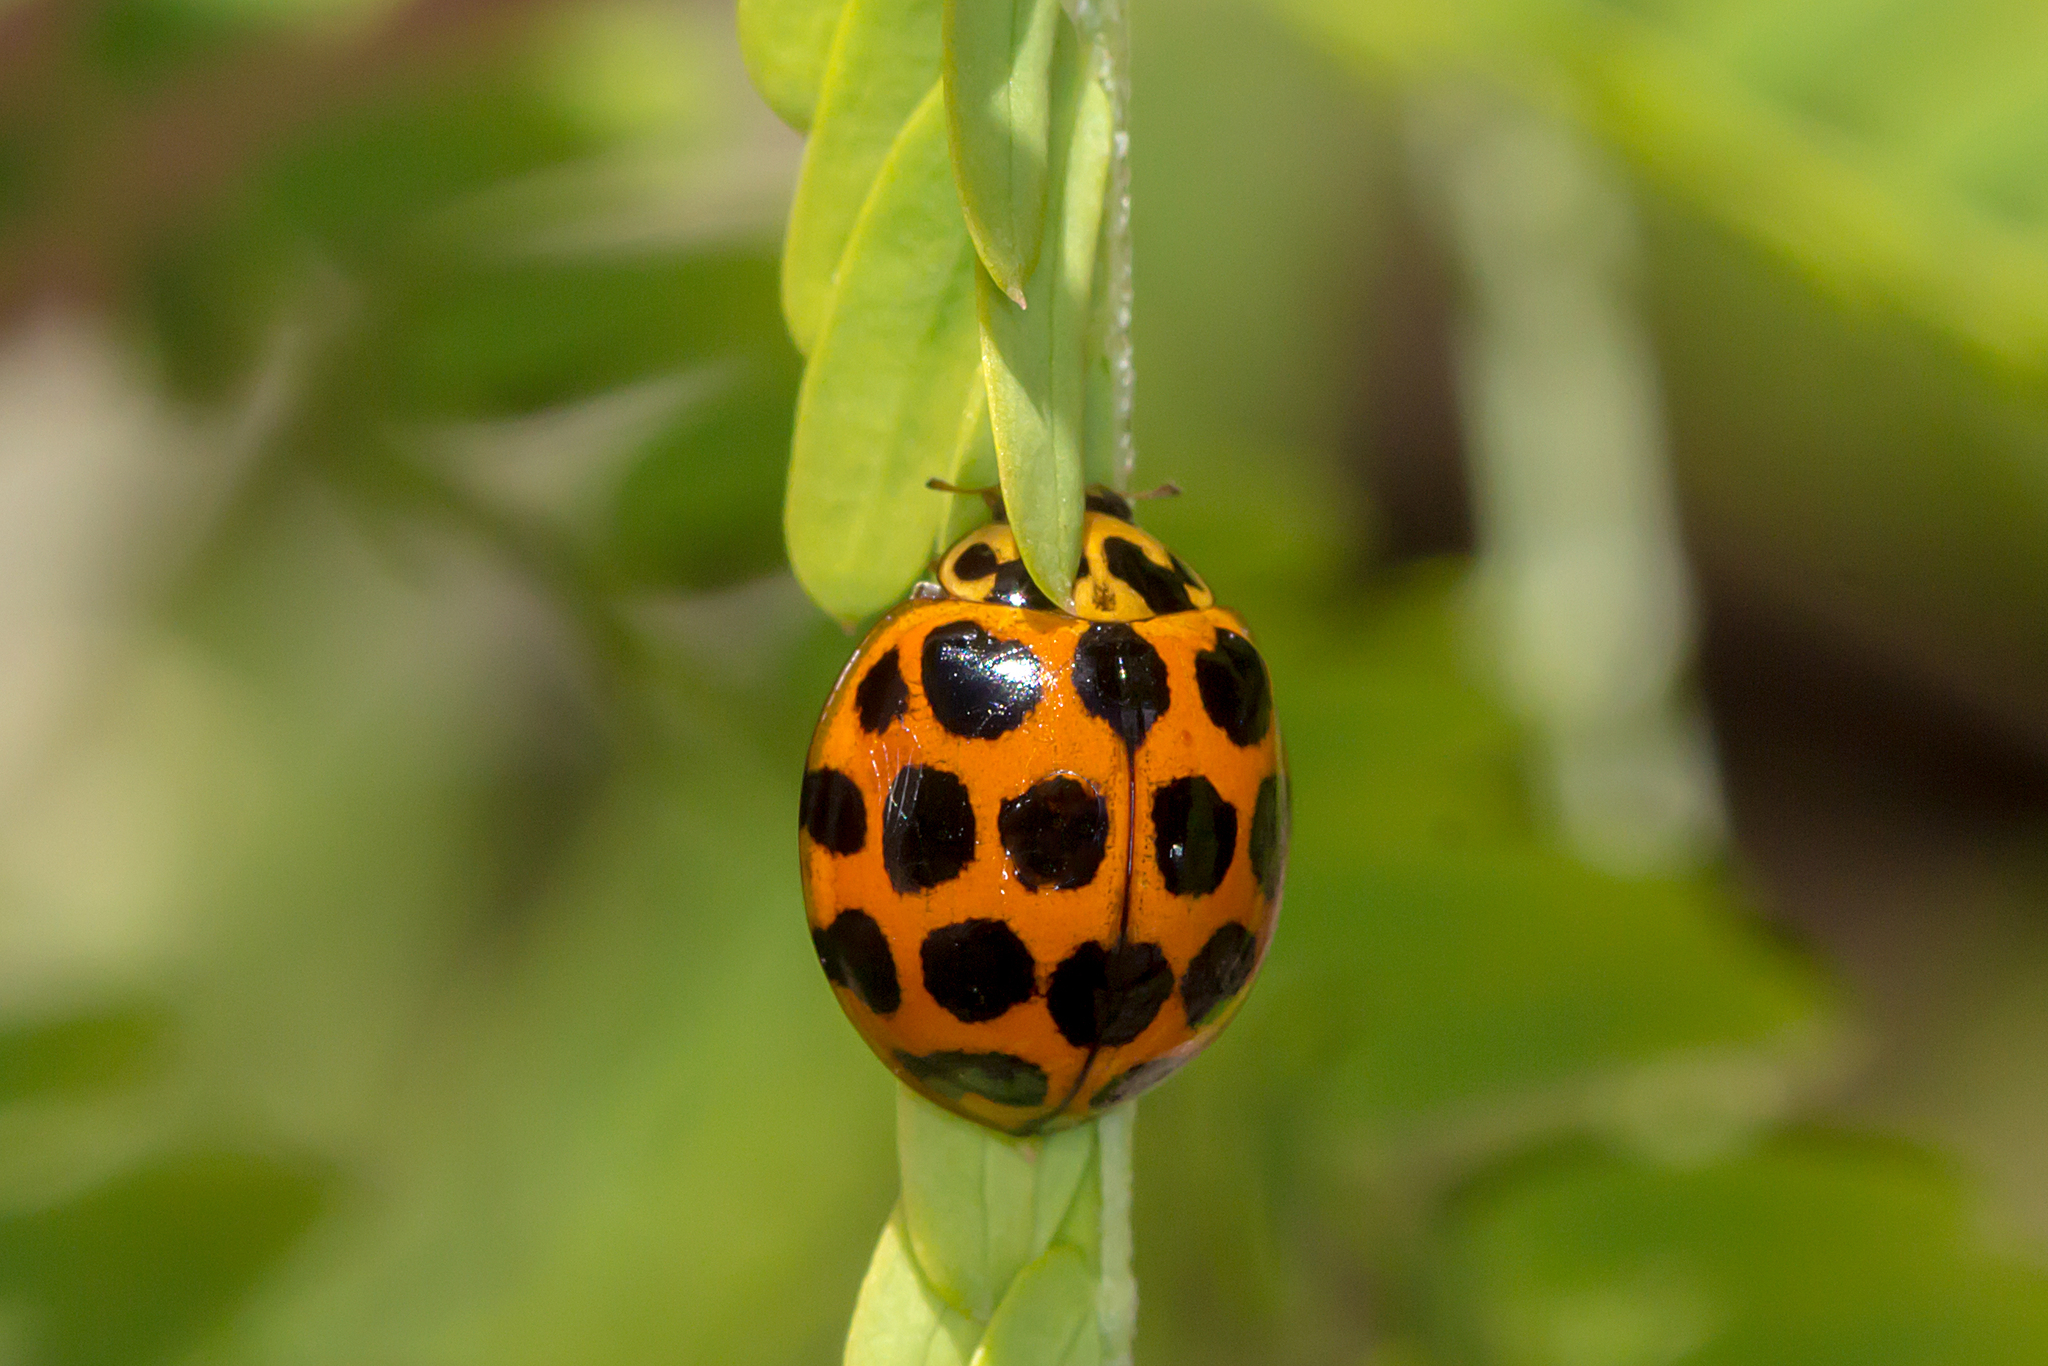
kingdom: Animalia
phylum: Arthropoda
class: Insecta
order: Coleoptera
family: Coccinellidae
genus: Harmonia
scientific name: Harmonia conformis
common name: Common spotted ladybird beetle
